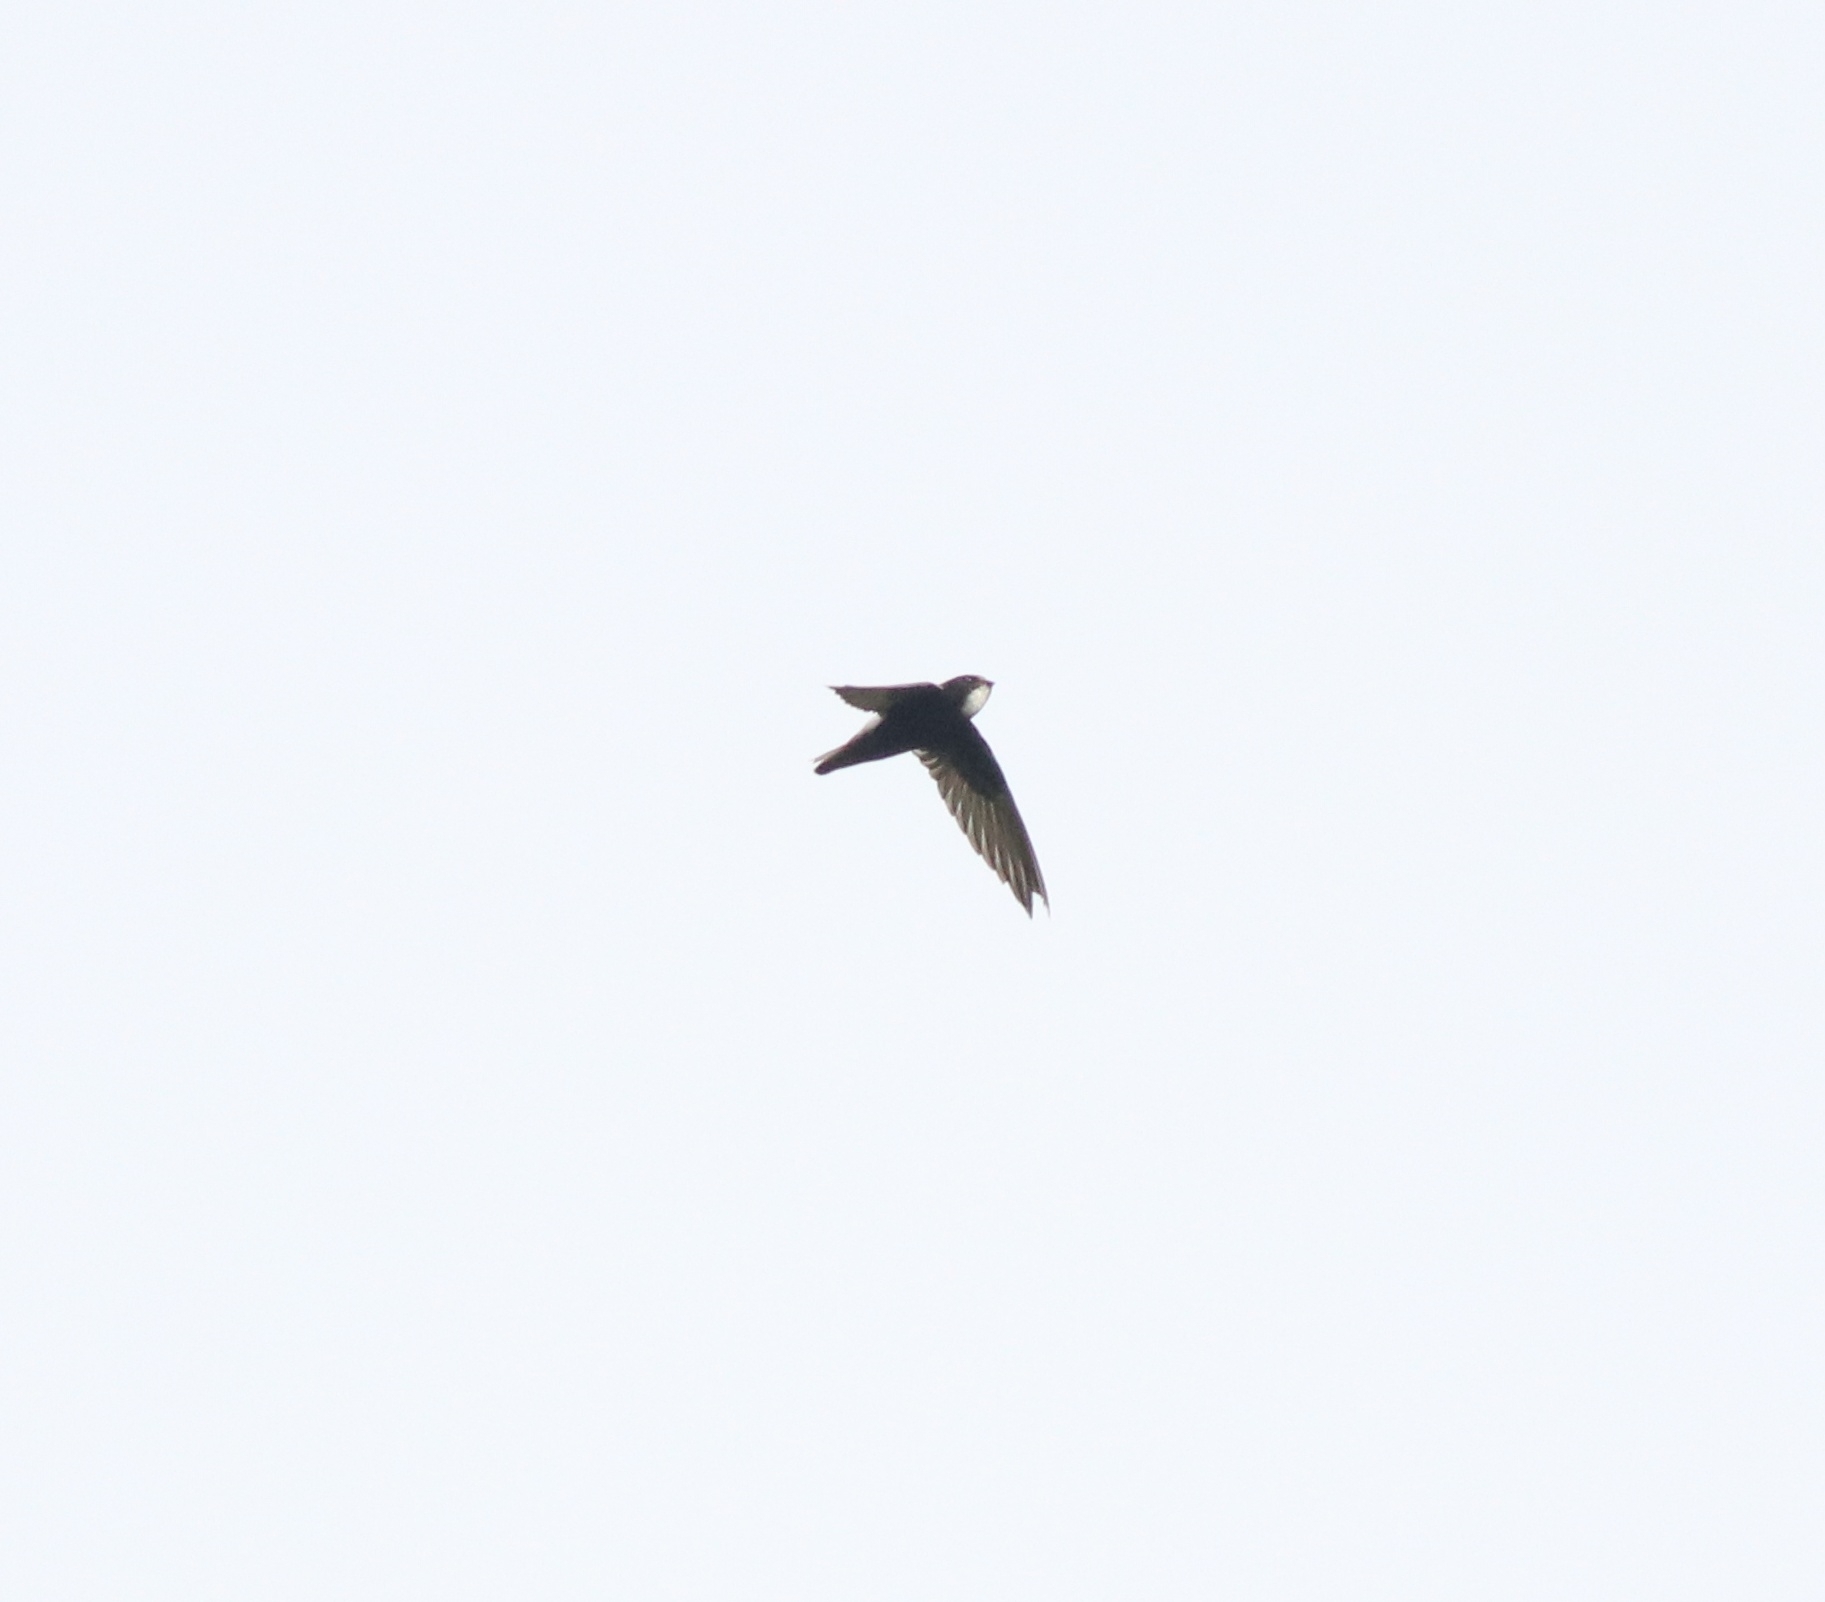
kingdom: Animalia
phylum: Chordata
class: Aves
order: Apodiformes
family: Apodidae
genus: Apus
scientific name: Apus affinis
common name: Little swift
